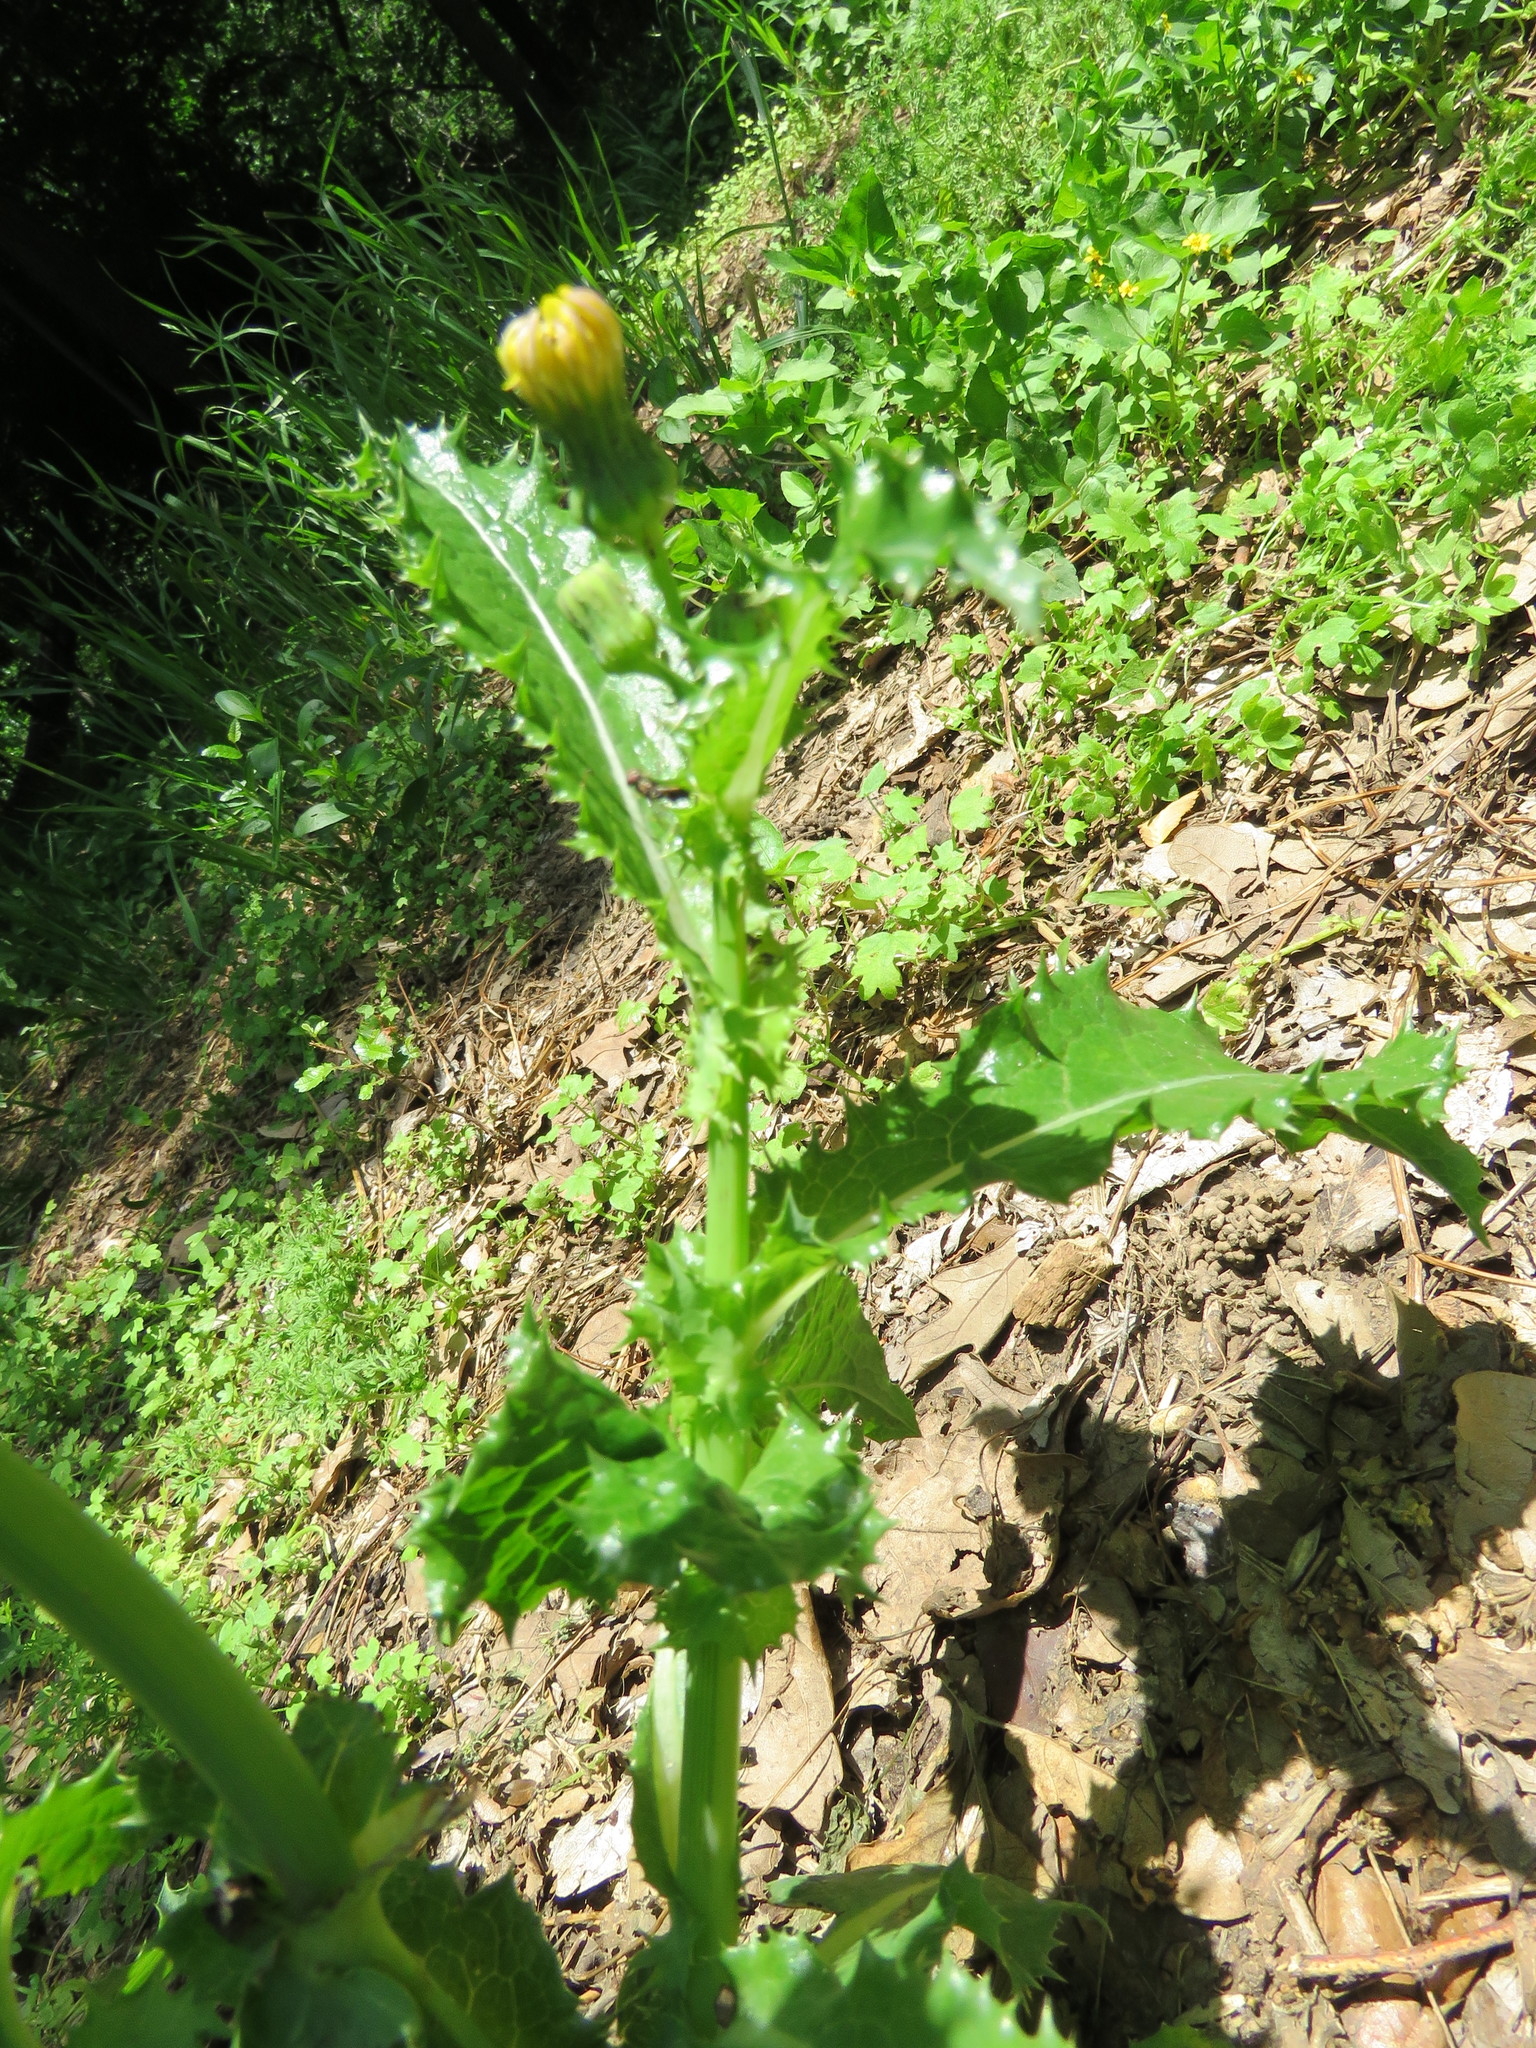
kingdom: Plantae
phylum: Tracheophyta
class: Magnoliopsida
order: Asterales
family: Asteraceae
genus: Sonchus
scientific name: Sonchus asper
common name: Prickly sow-thistle
